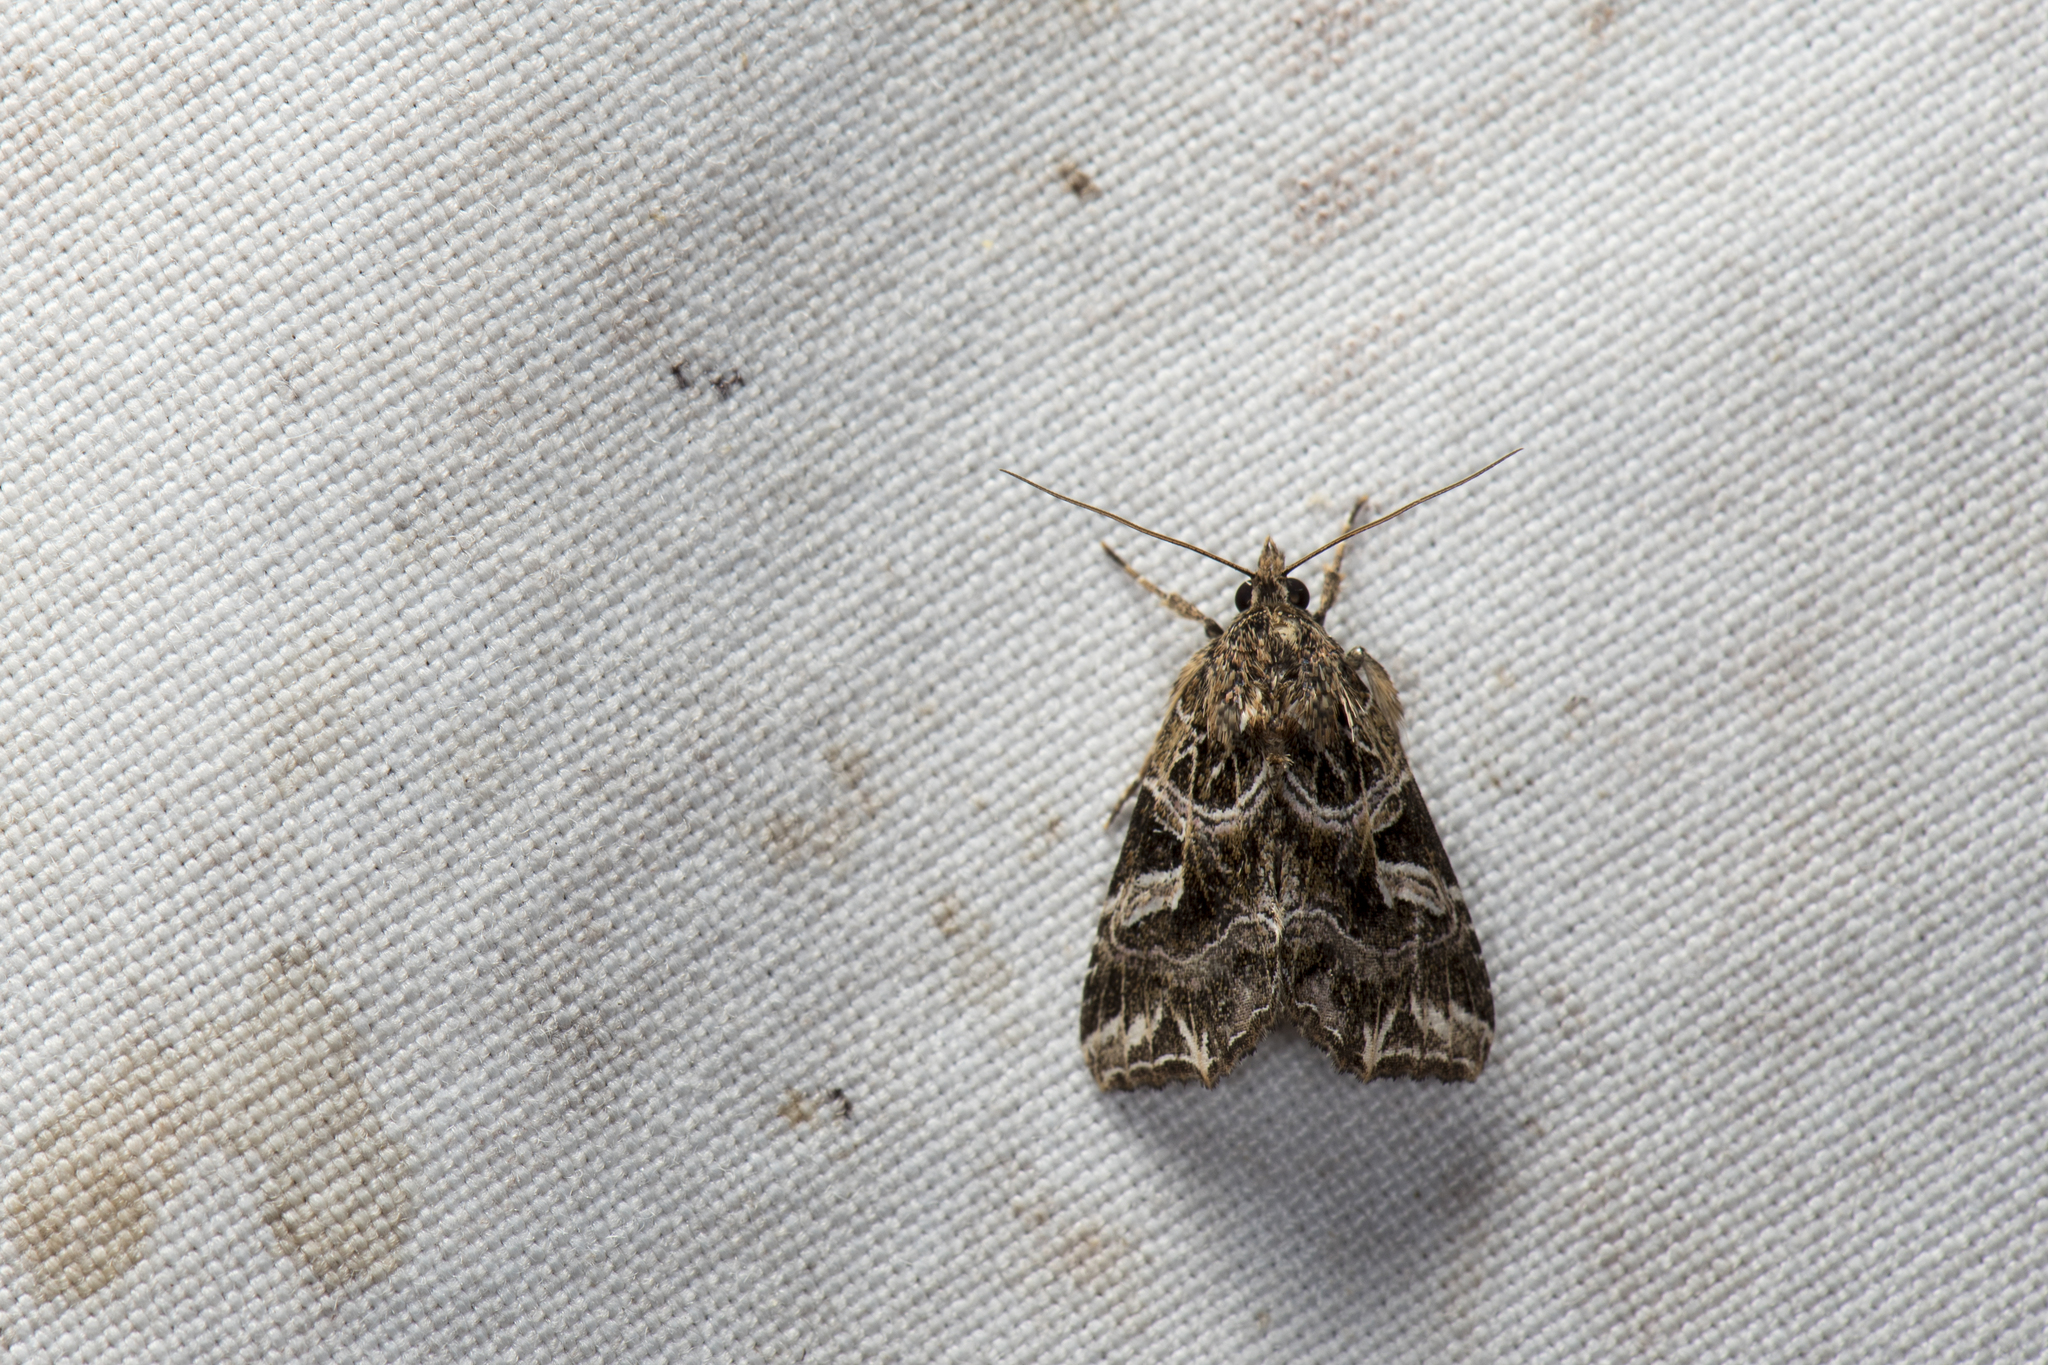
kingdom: Animalia
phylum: Arthropoda
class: Insecta
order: Lepidoptera
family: Noctuidae
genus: Callopistria
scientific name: Callopistria duplicans
